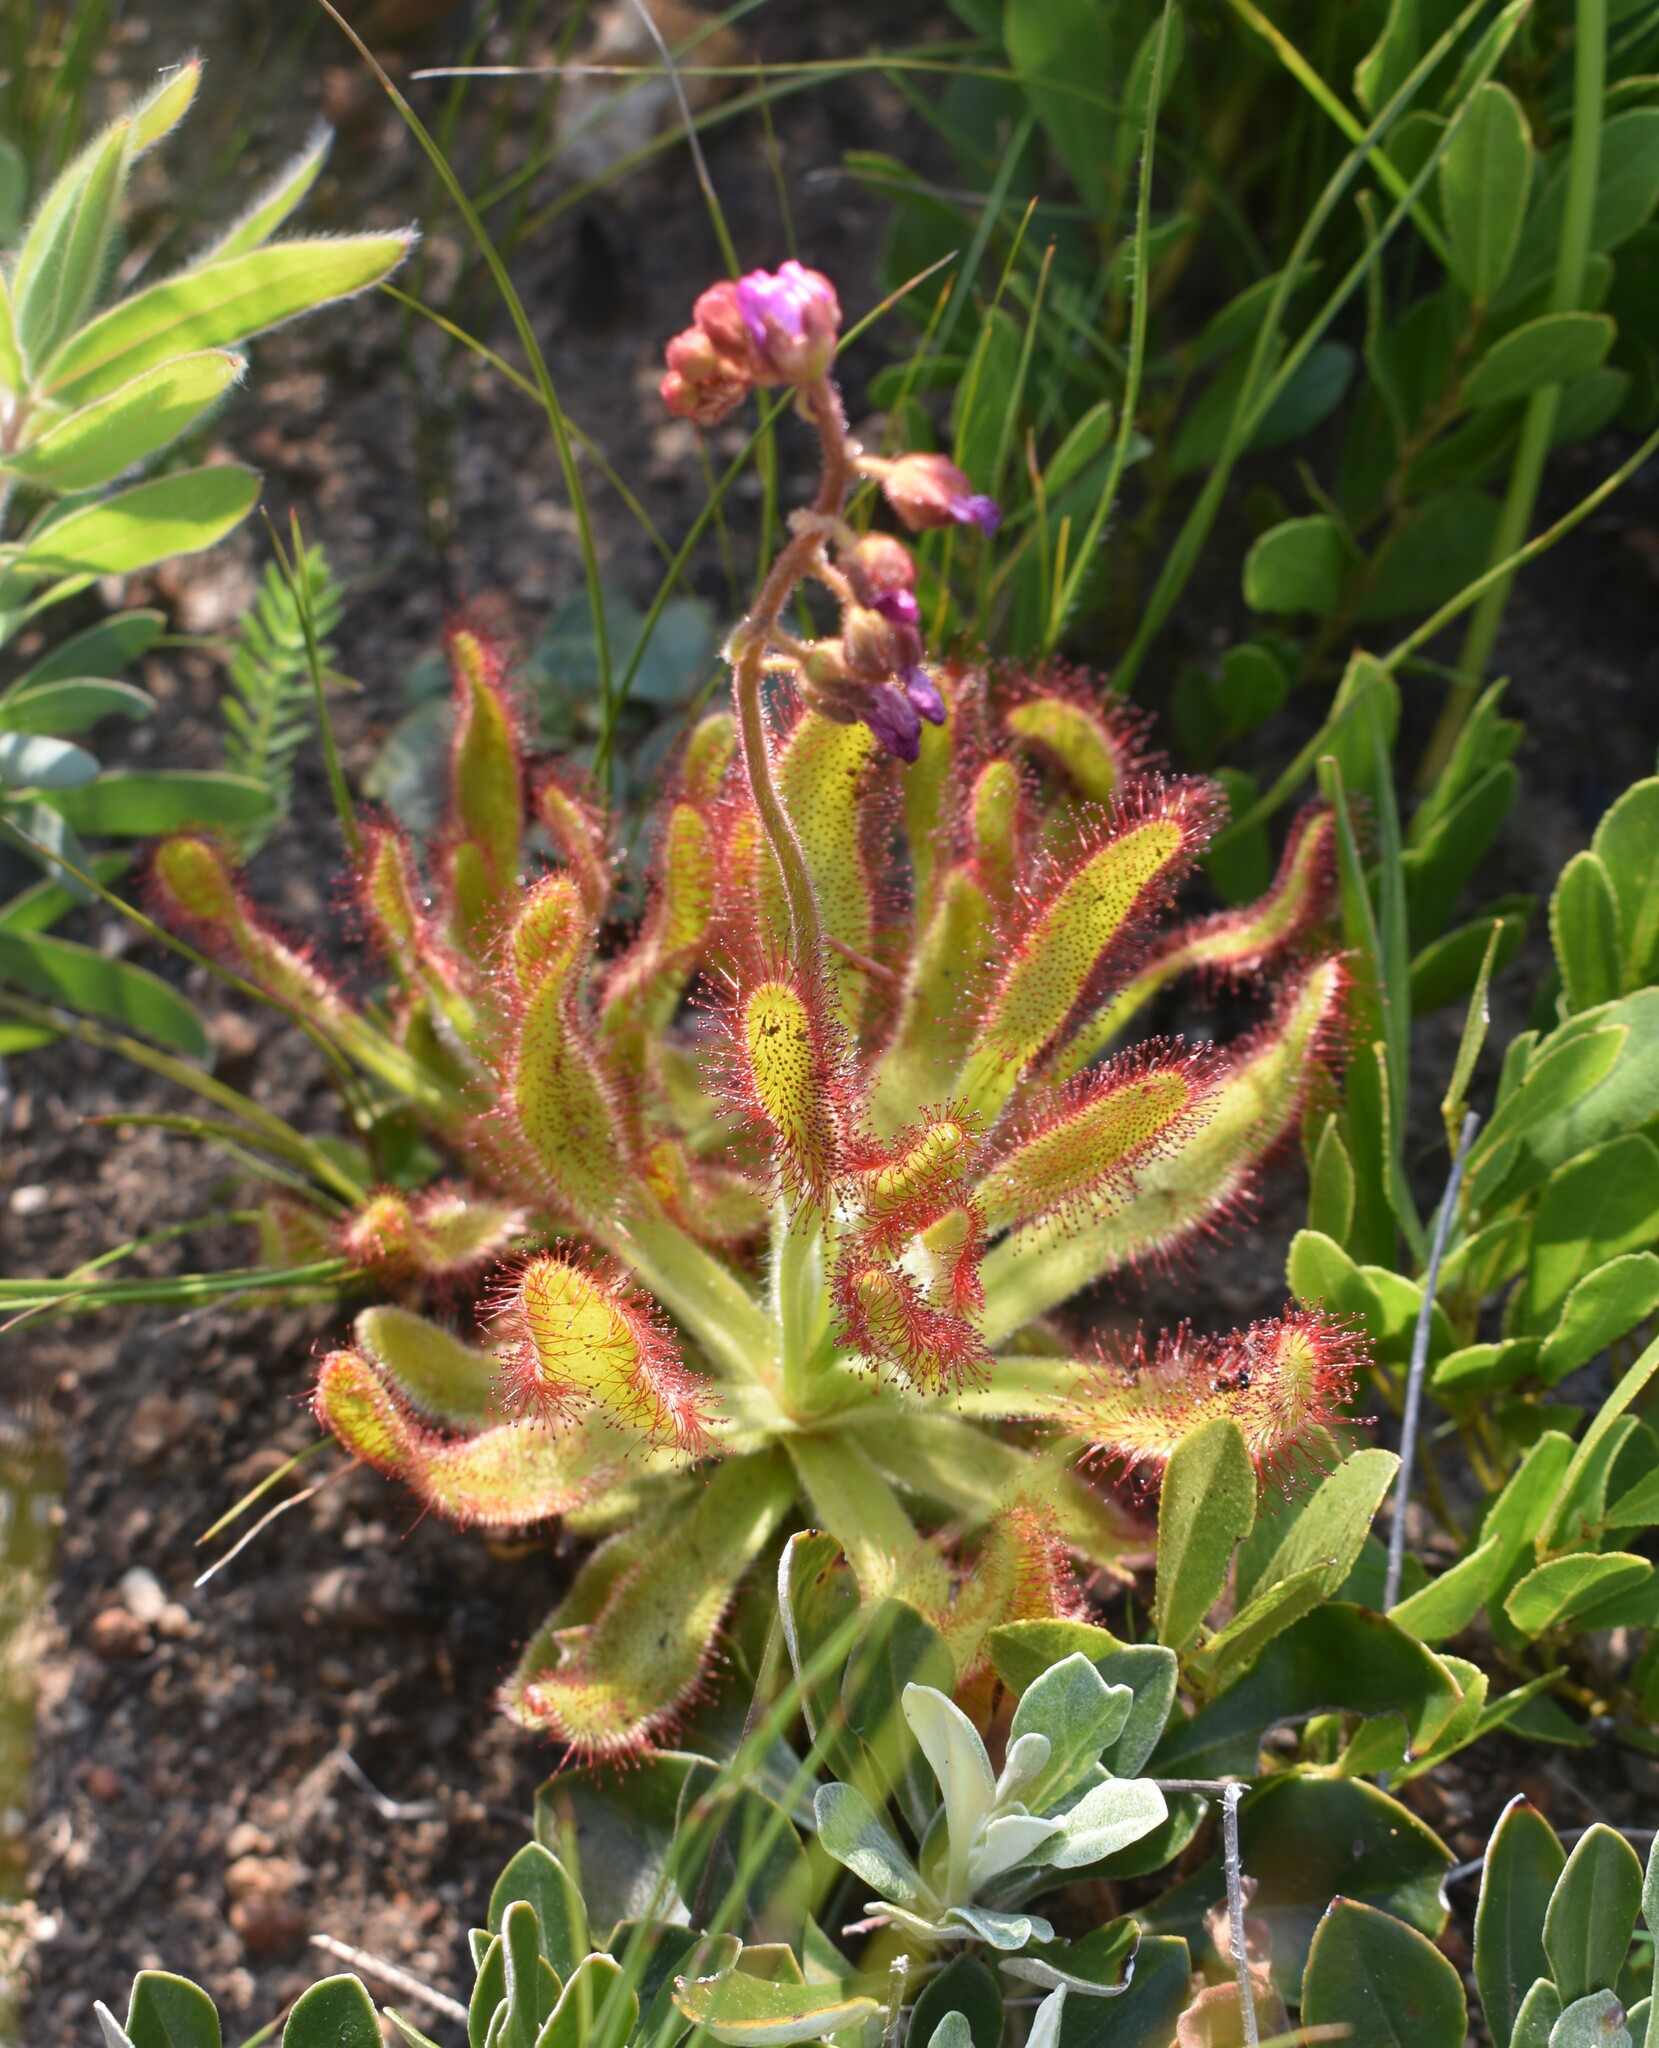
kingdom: Plantae
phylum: Tracheophyta
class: Magnoliopsida
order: Caryophyllales
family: Droseraceae
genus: Drosera
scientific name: Drosera hilaris
